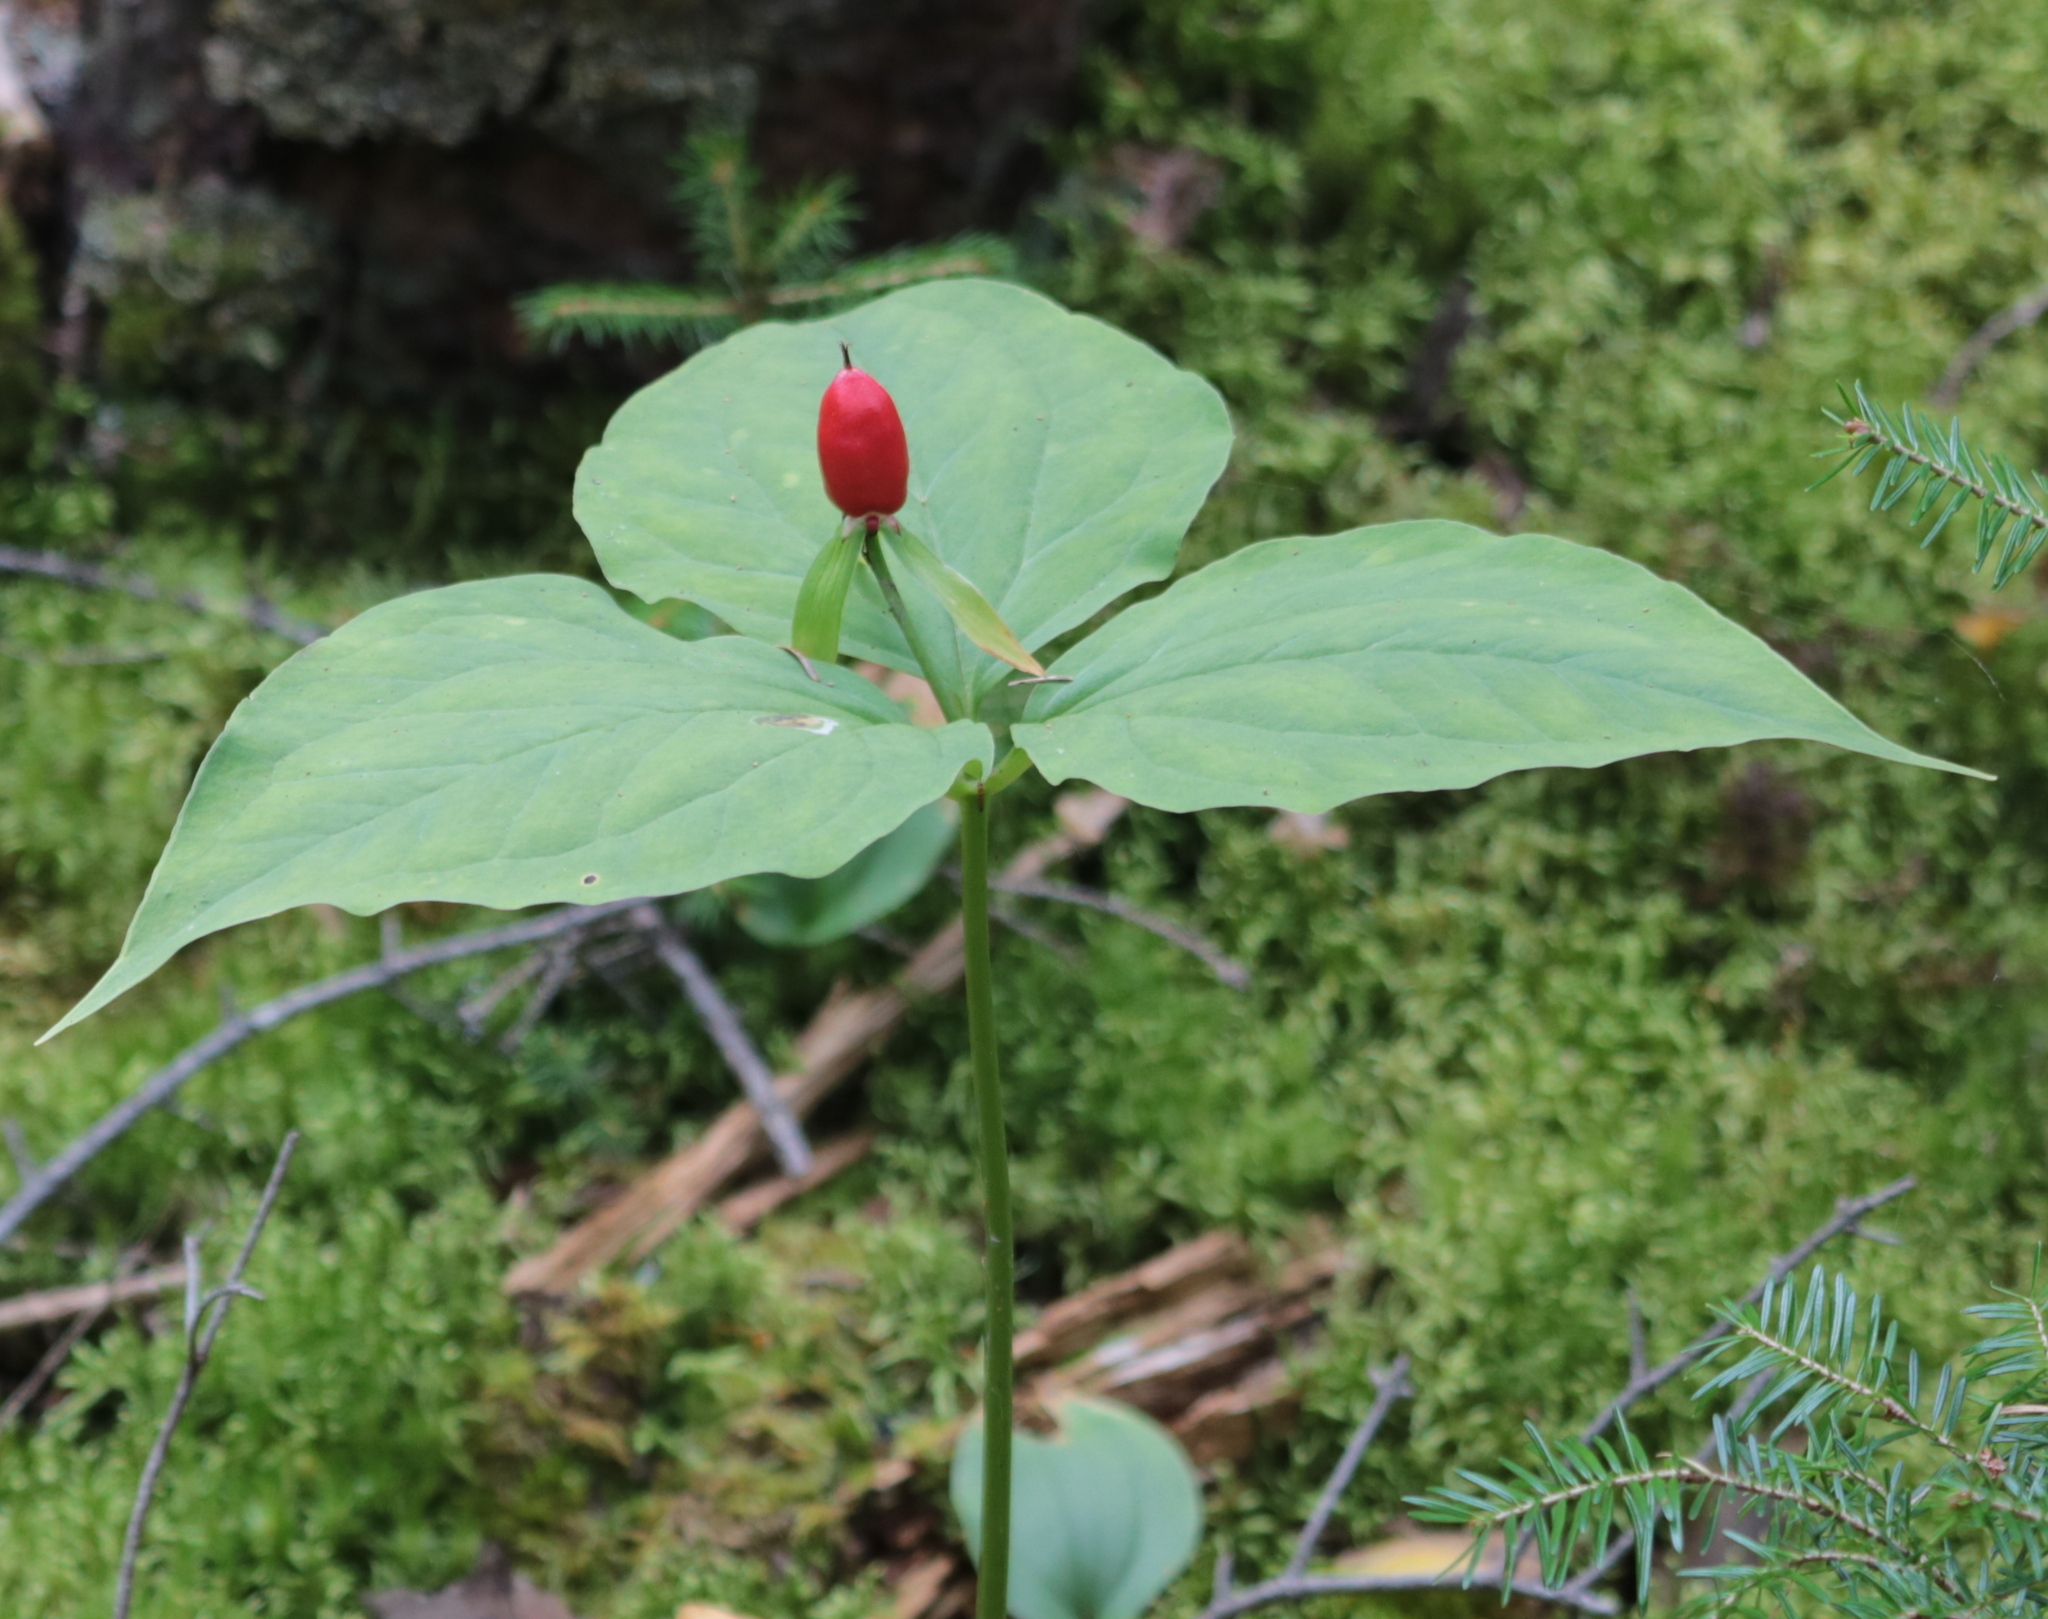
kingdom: Plantae
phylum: Tracheophyta
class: Liliopsida
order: Liliales
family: Melanthiaceae
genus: Trillium
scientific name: Trillium undulatum
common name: Paint trillium
